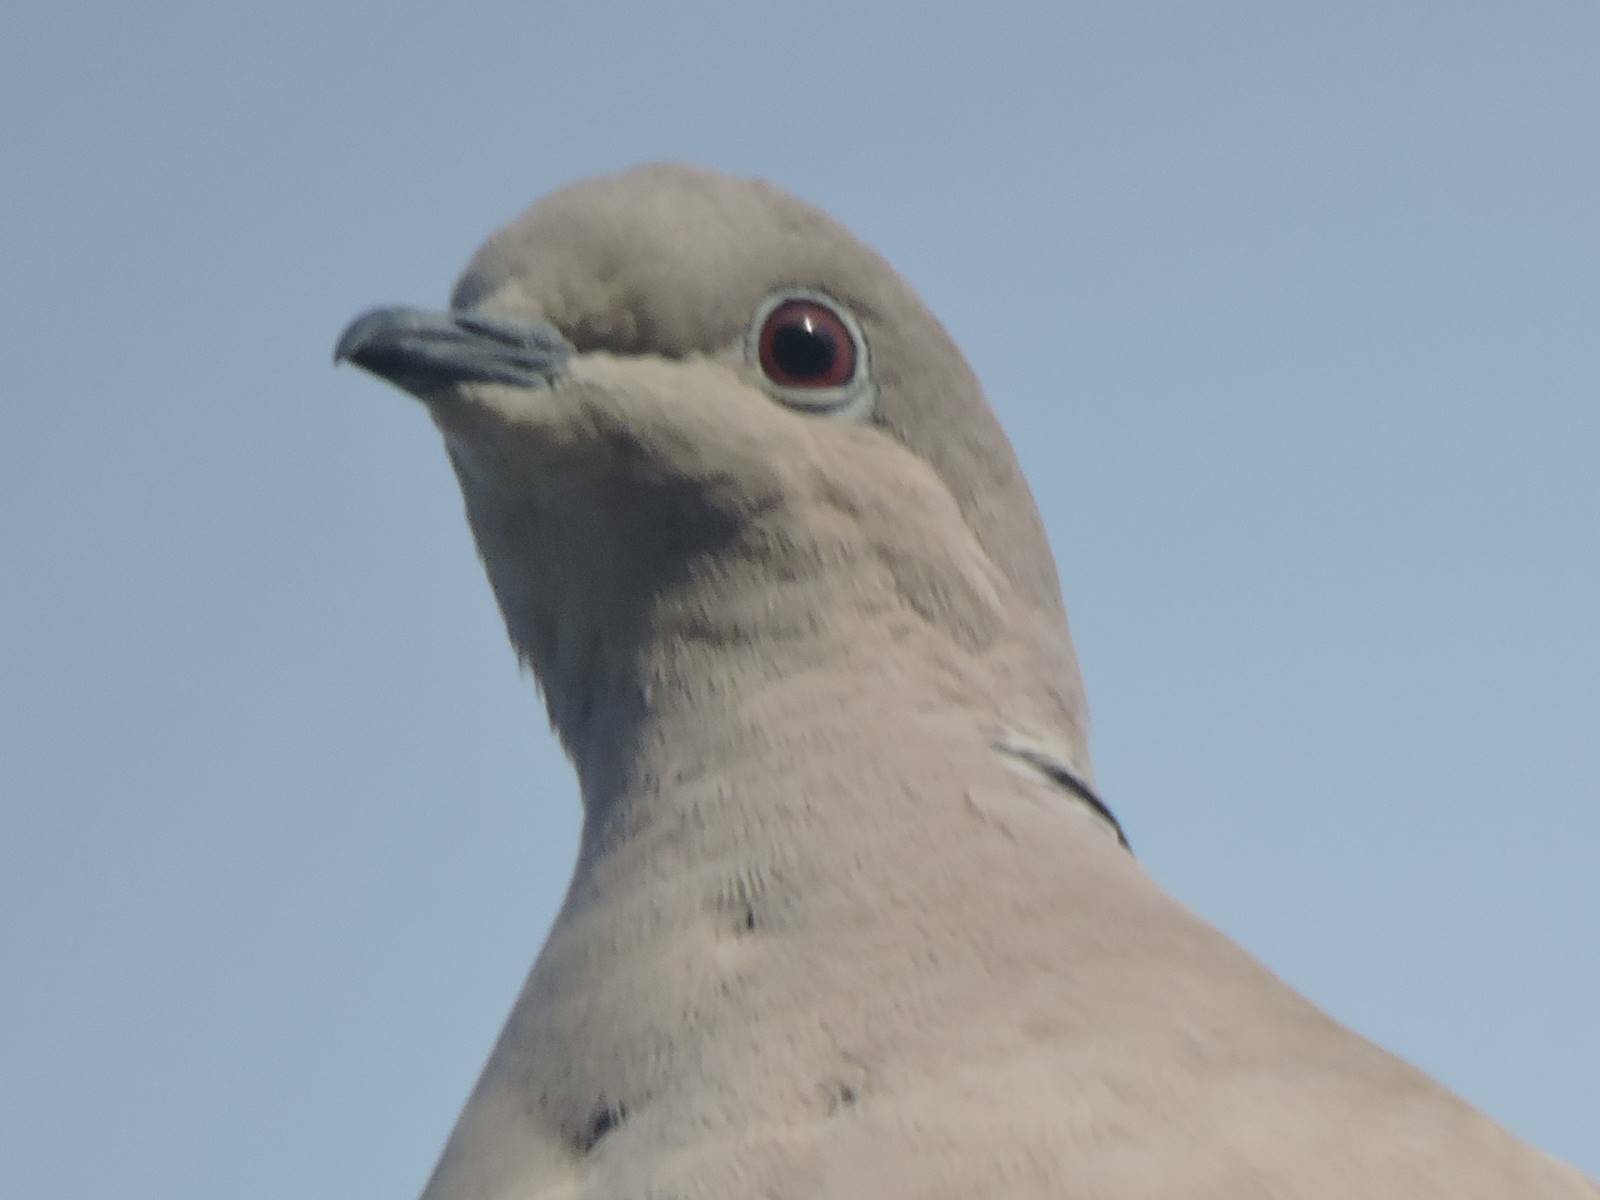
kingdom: Animalia
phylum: Chordata
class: Aves
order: Columbiformes
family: Columbidae
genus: Streptopelia
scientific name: Streptopelia decaocto
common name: Eurasian collared dove
